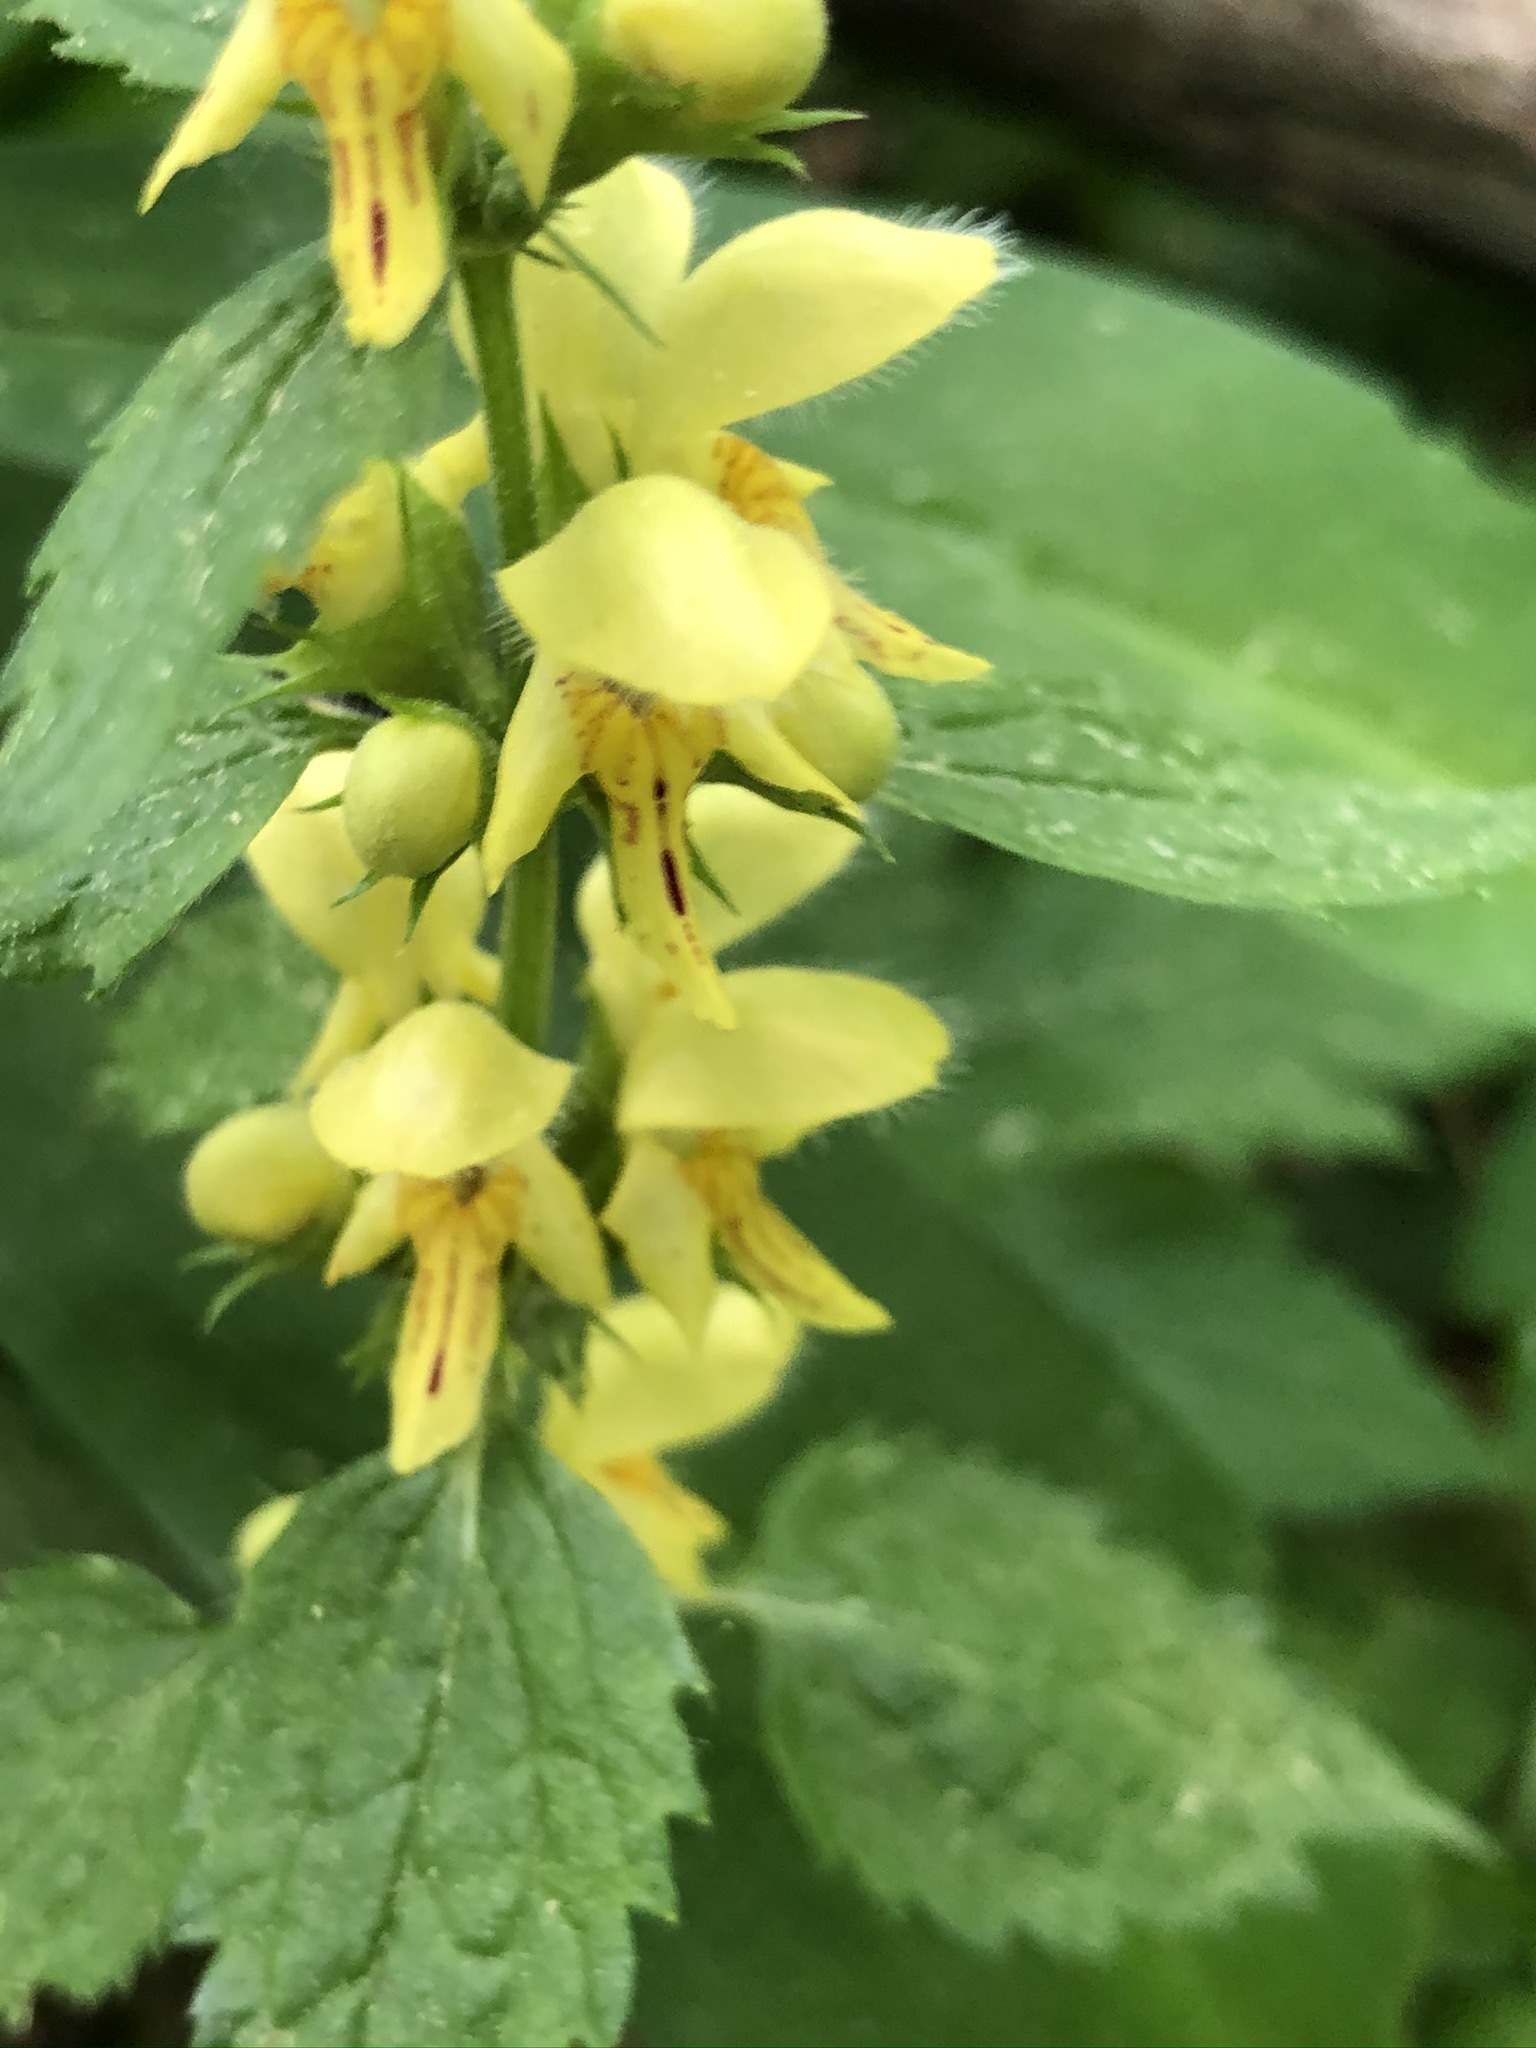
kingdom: Plantae
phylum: Tracheophyta
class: Magnoliopsida
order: Lamiales
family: Lamiaceae
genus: Lamium
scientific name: Lamium galeobdolon
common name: Yellow archangel
